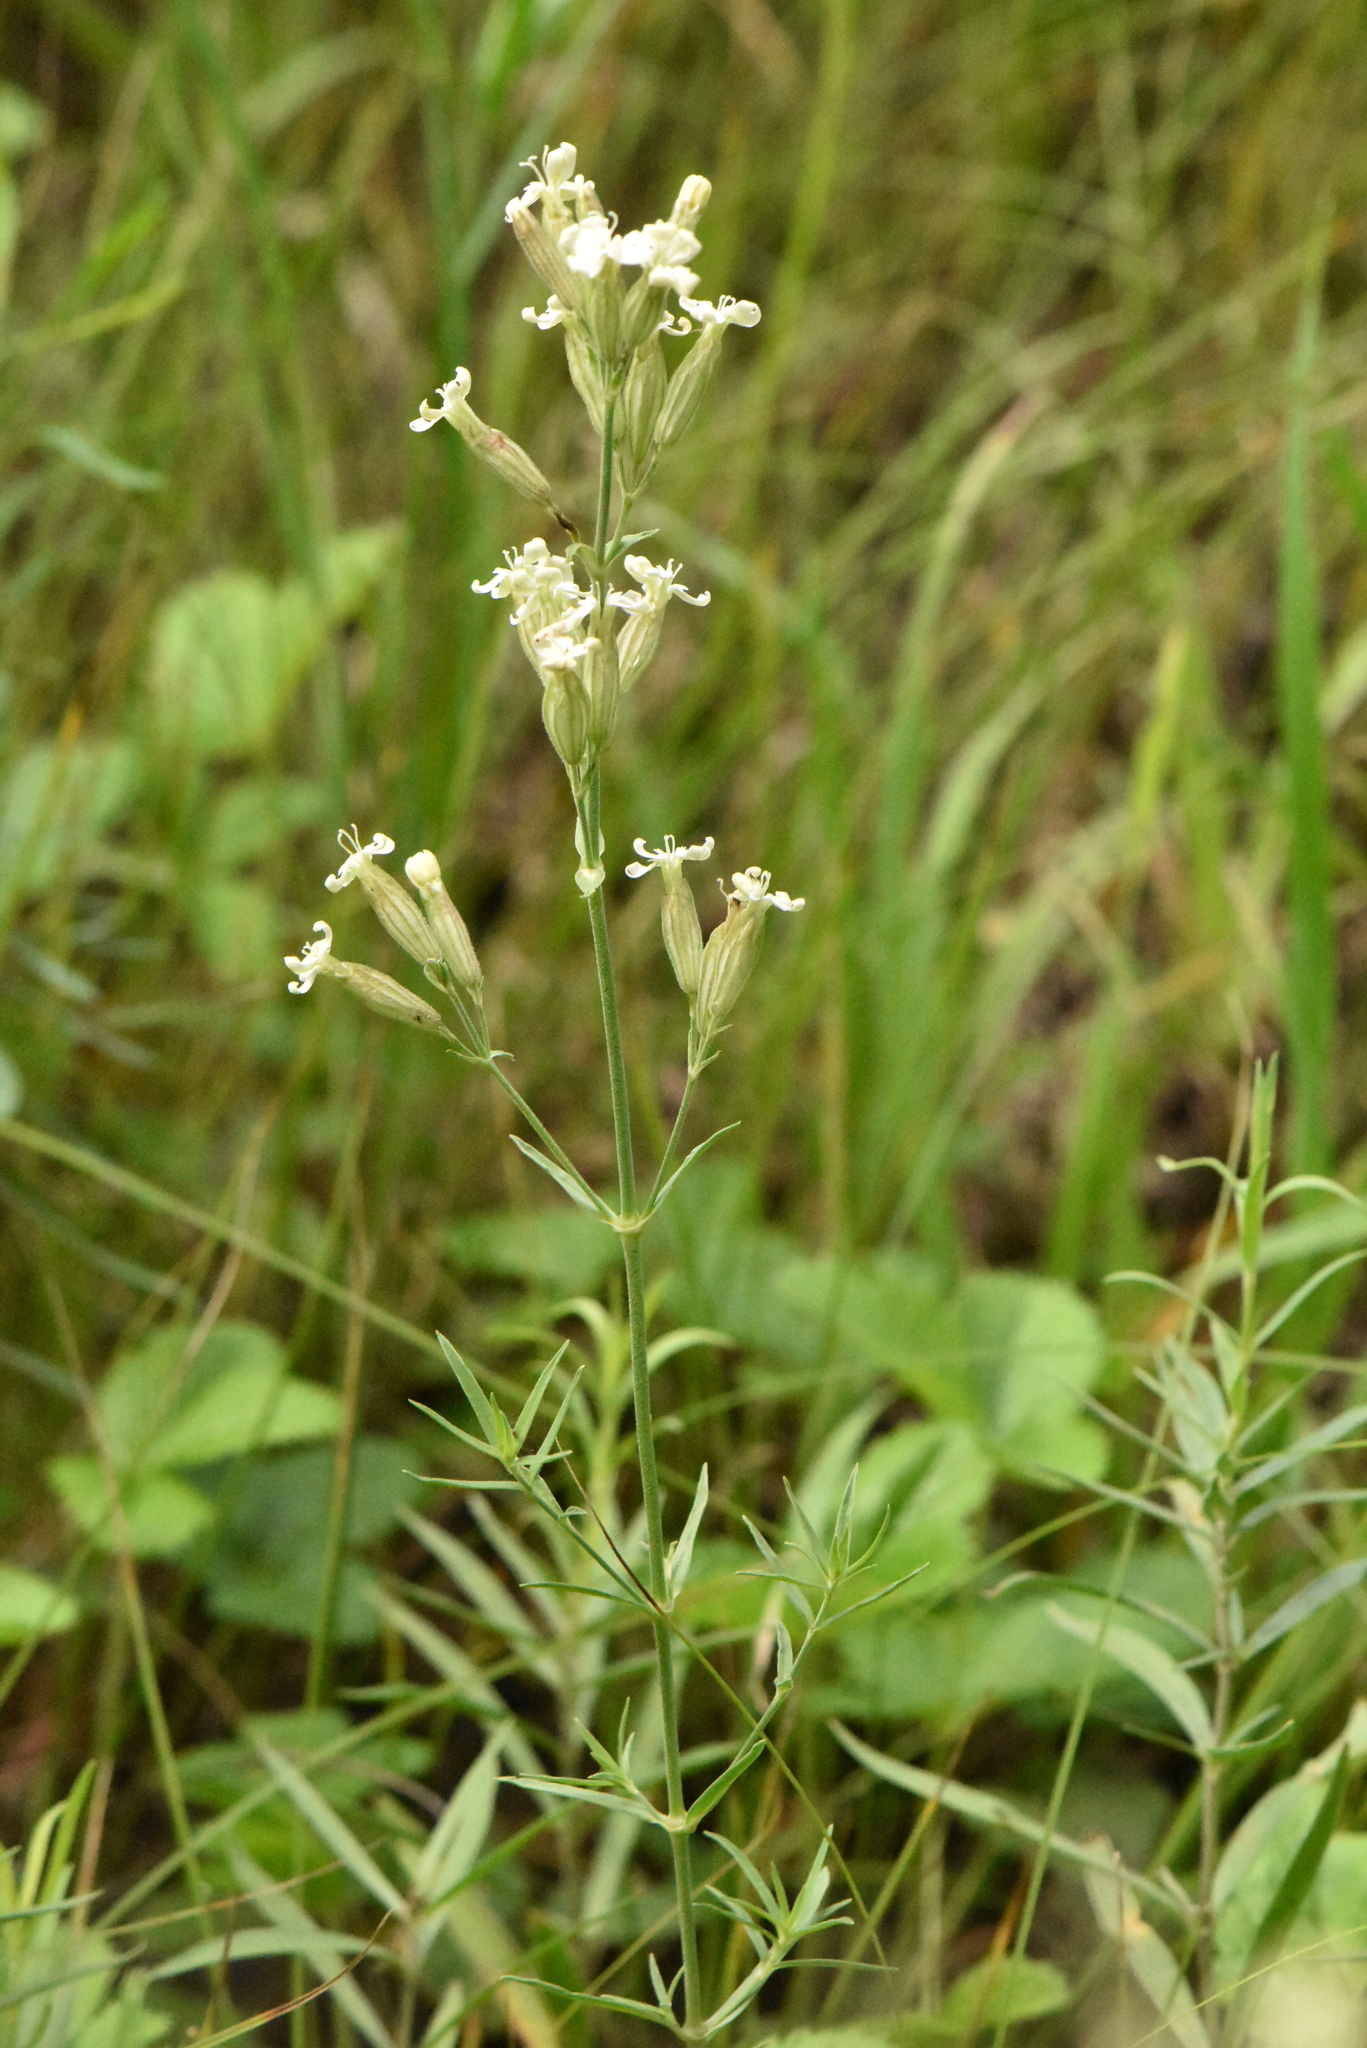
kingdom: Plantae
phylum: Tracheophyta
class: Magnoliopsida
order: Caryophyllales
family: Caryophyllaceae
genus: Silene
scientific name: Silene amoena
